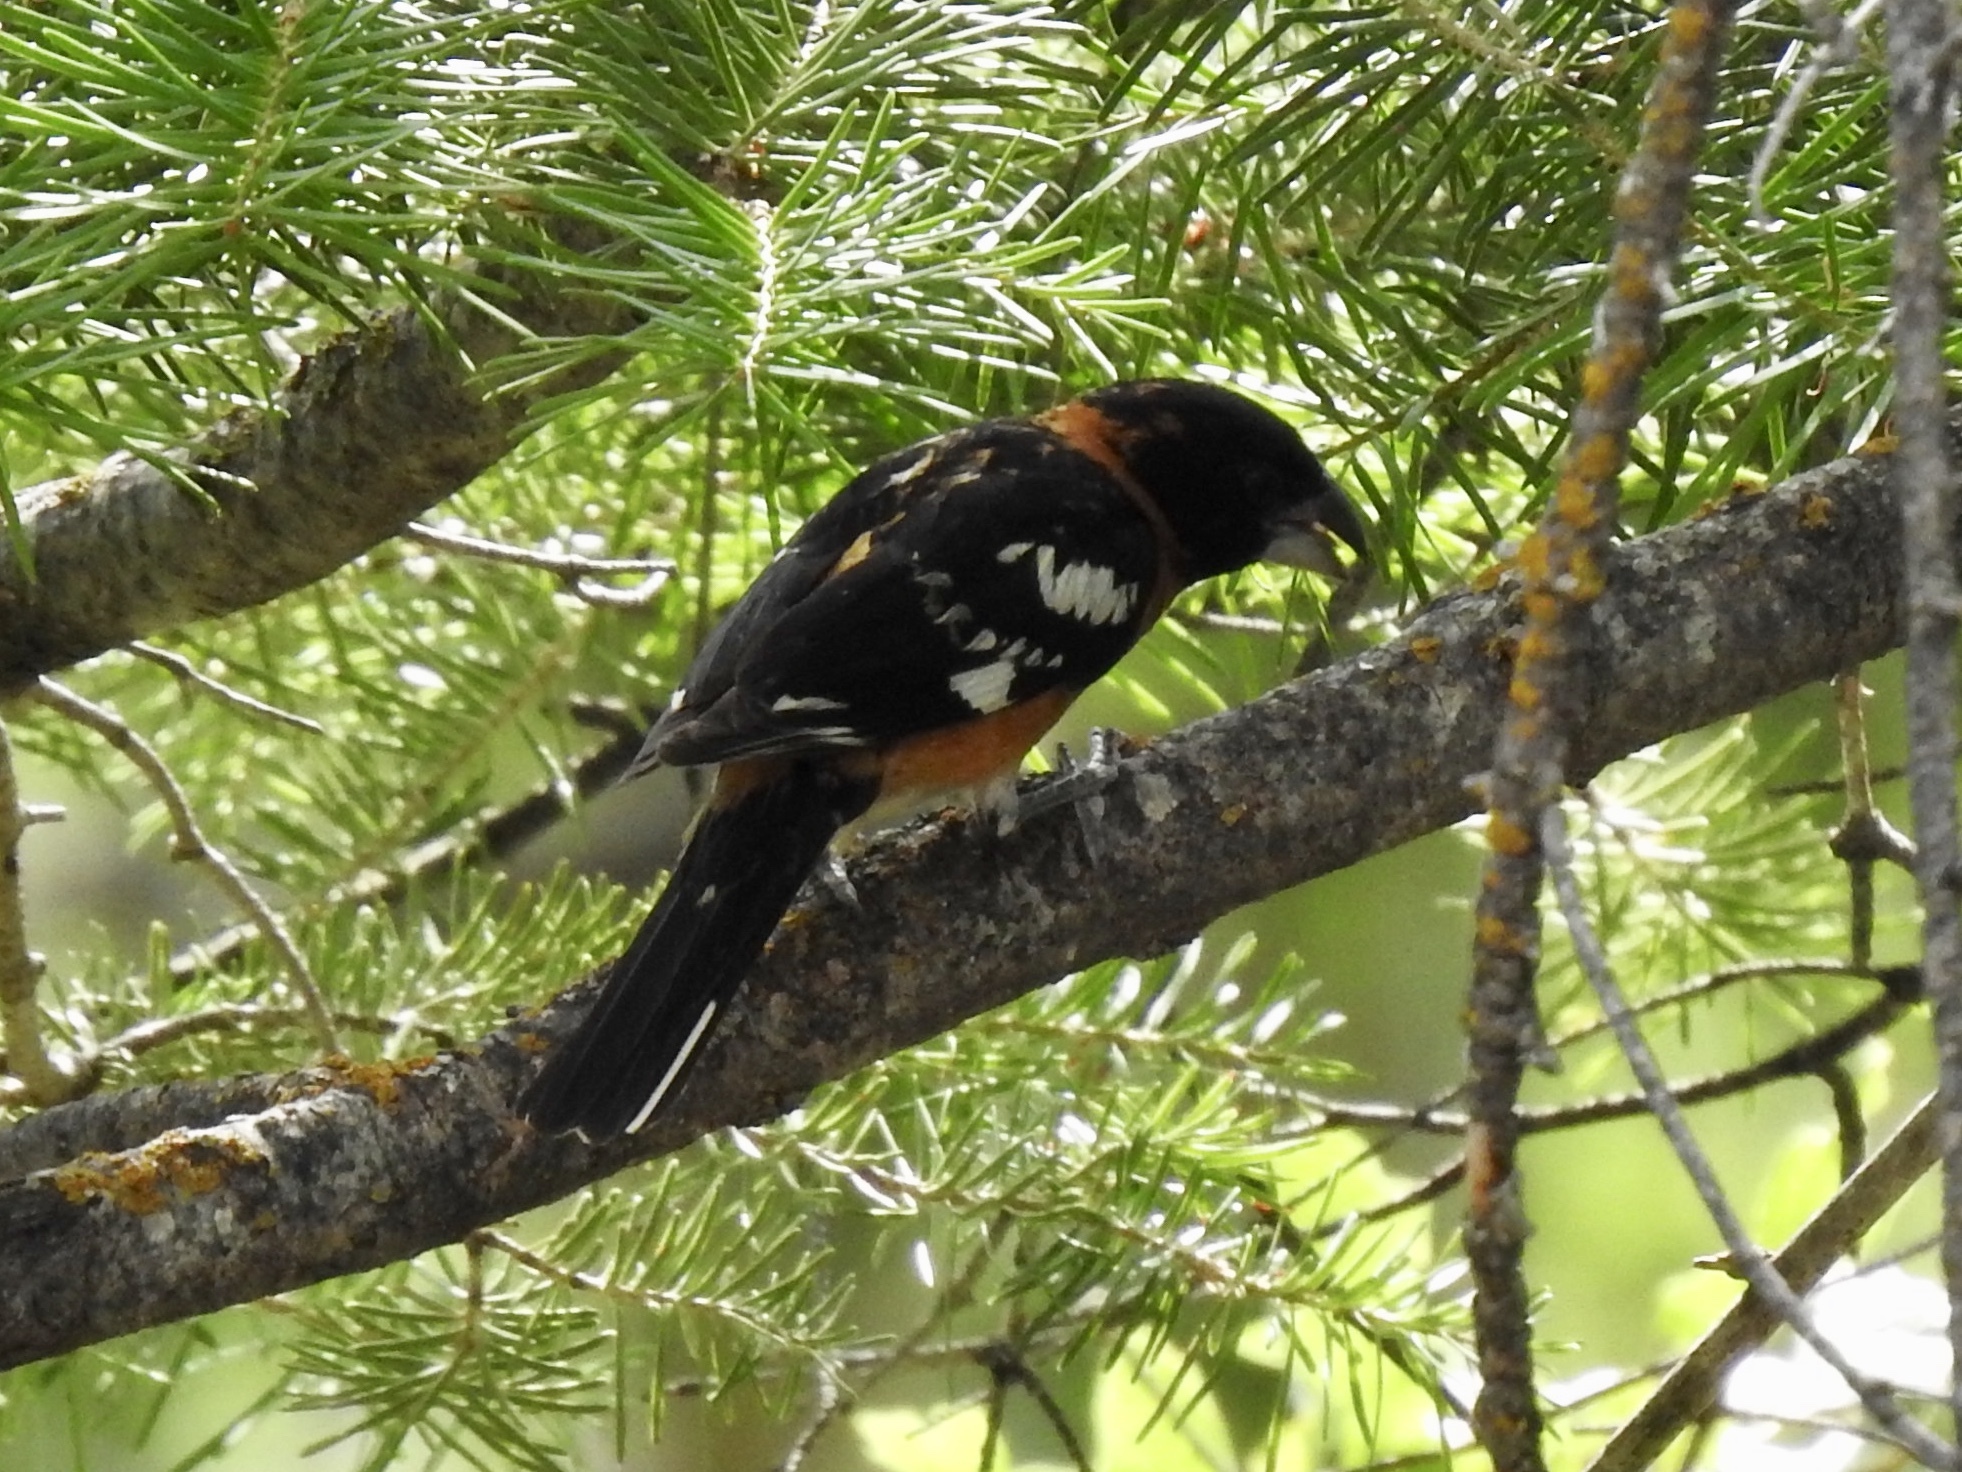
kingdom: Animalia
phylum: Chordata
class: Aves
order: Passeriformes
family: Cardinalidae
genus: Pheucticus
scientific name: Pheucticus melanocephalus
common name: Black-headed grosbeak
